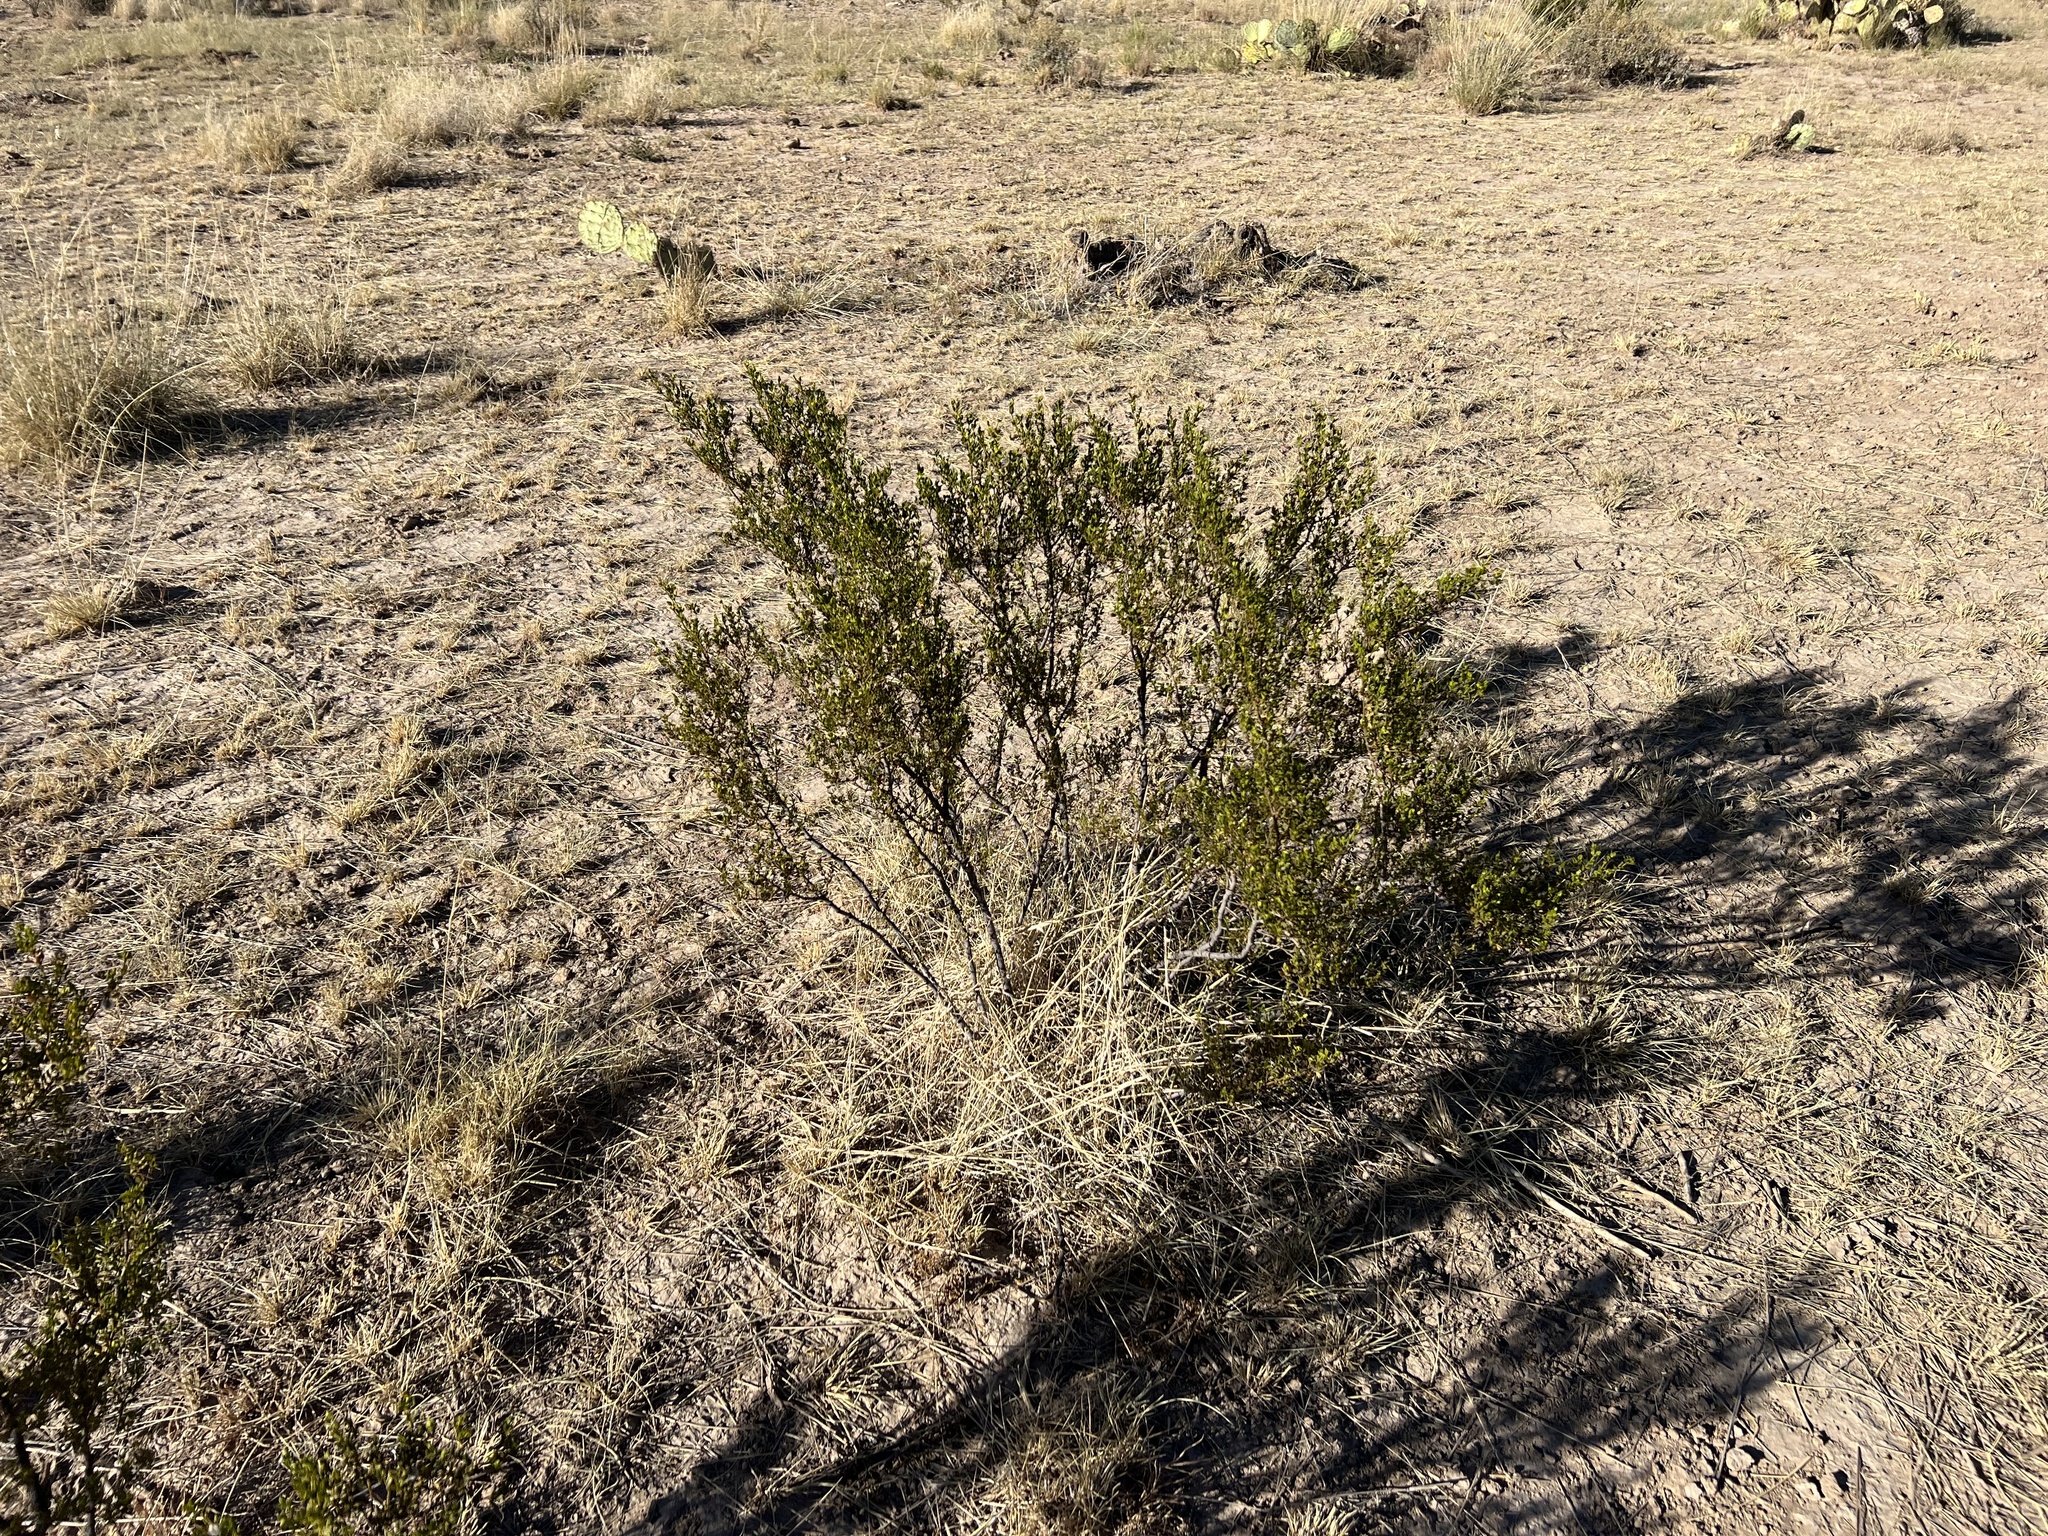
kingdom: Plantae
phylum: Tracheophyta
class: Magnoliopsida
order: Zygophyllales
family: Zygophyllaceae
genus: Larrea
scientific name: Larrea tridentata
